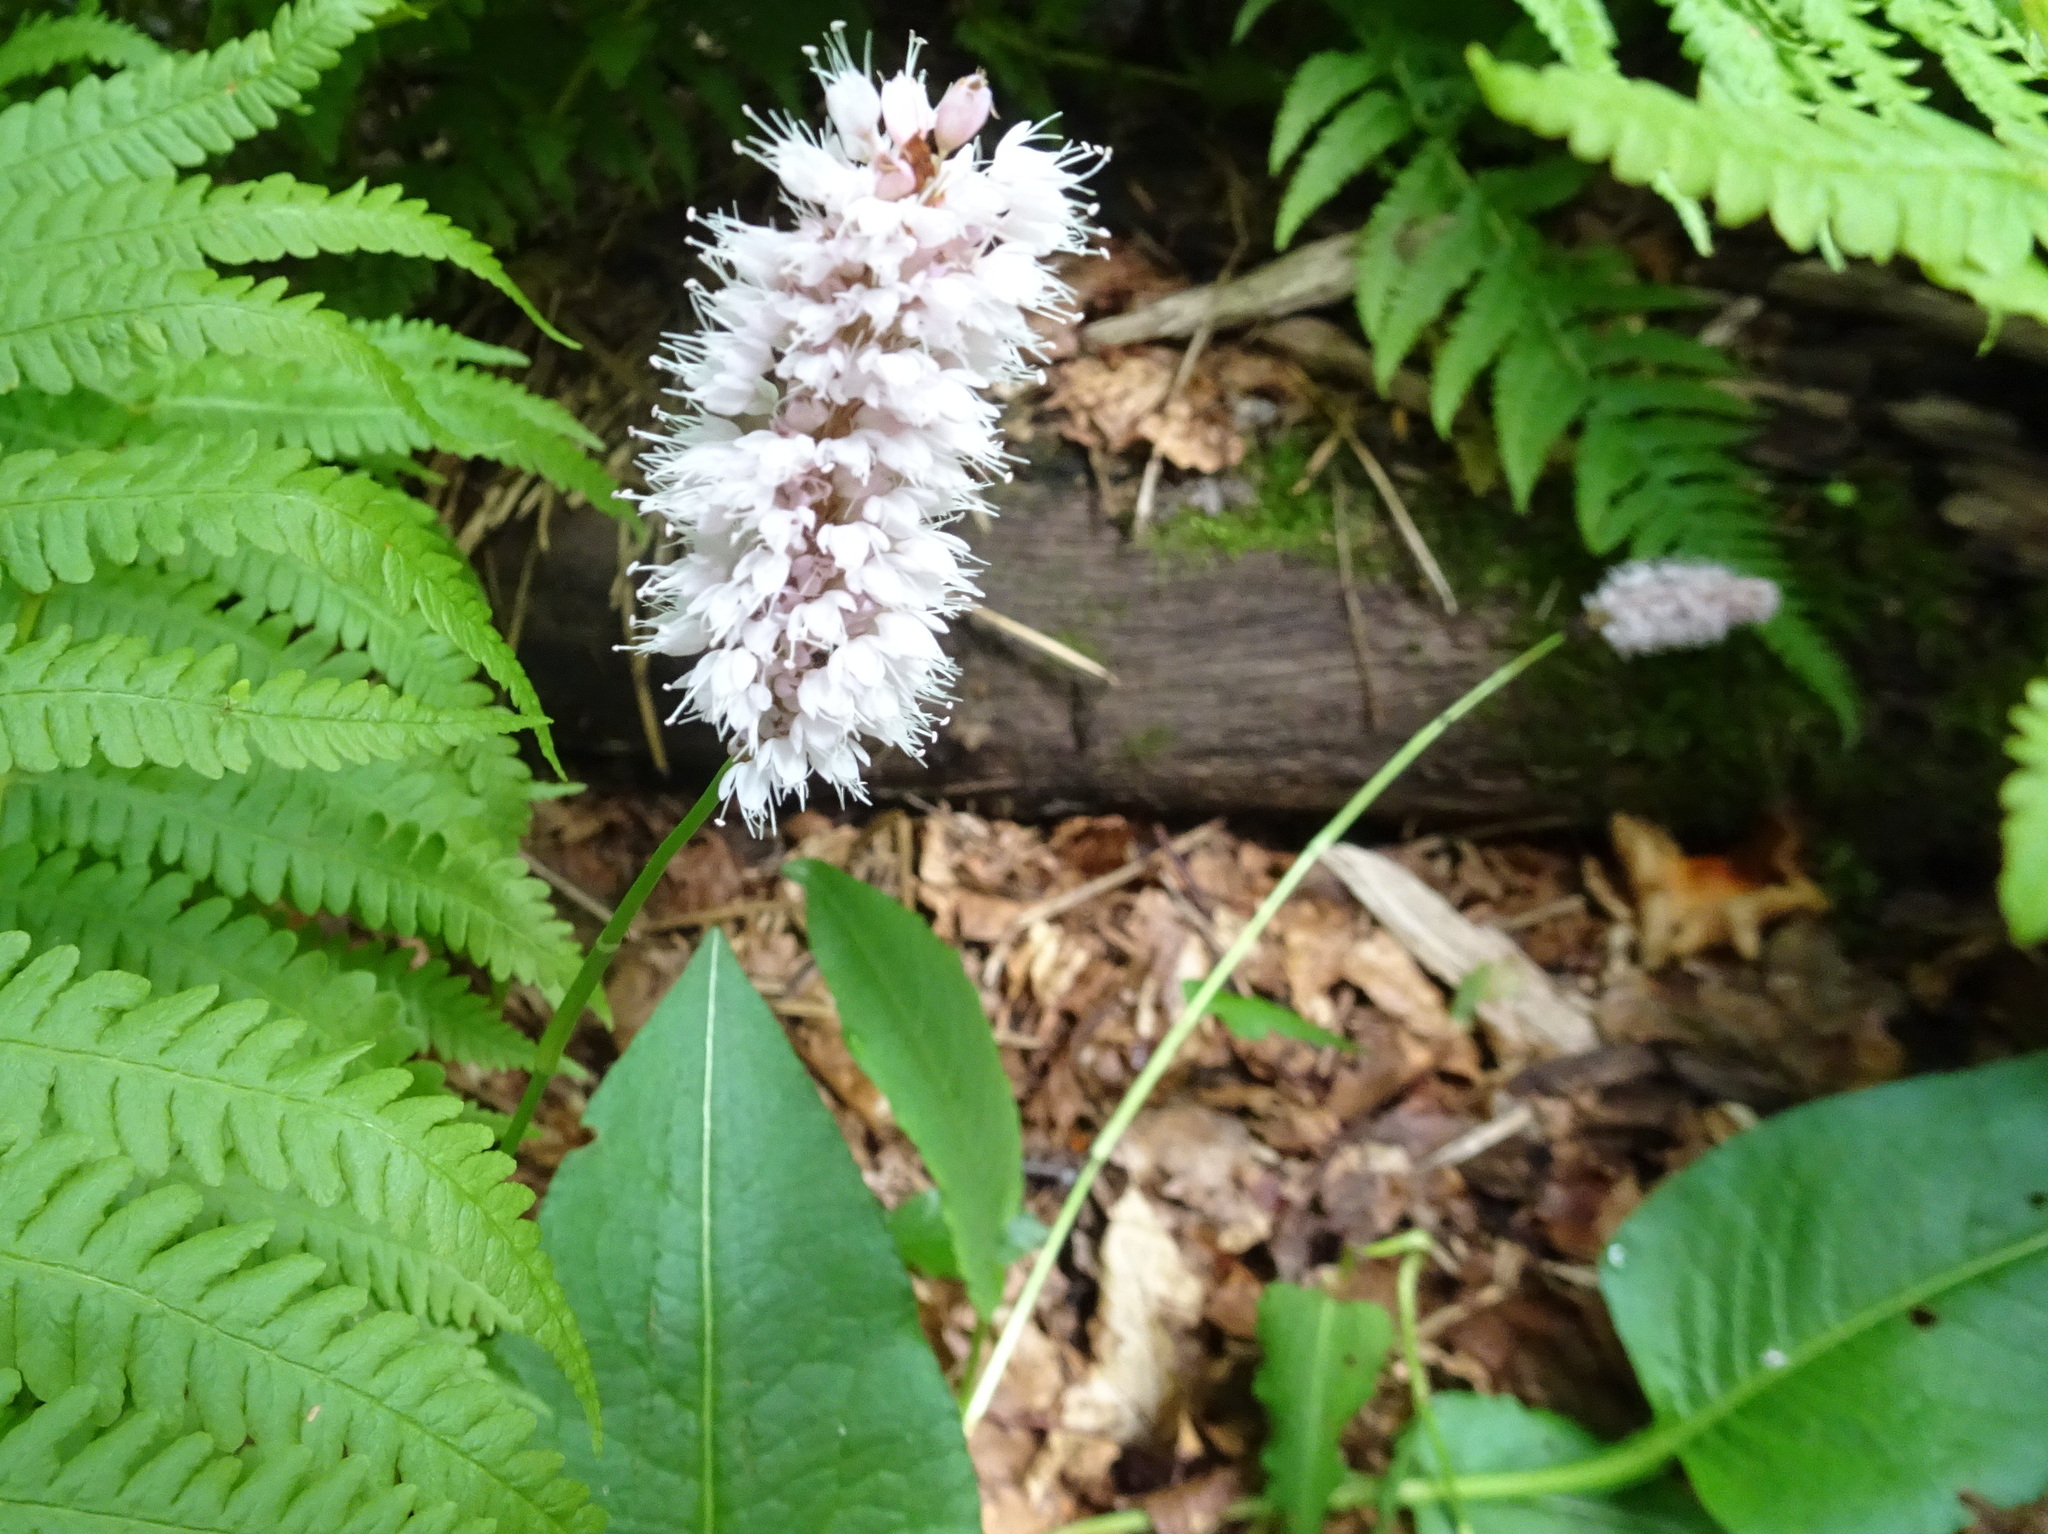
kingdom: Plantae
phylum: Tracheophyta
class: Magnoliopsida
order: Caryophyllales
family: Polygonaceae
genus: Bistorta
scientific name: Bistorta officinalis
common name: Common bistort
